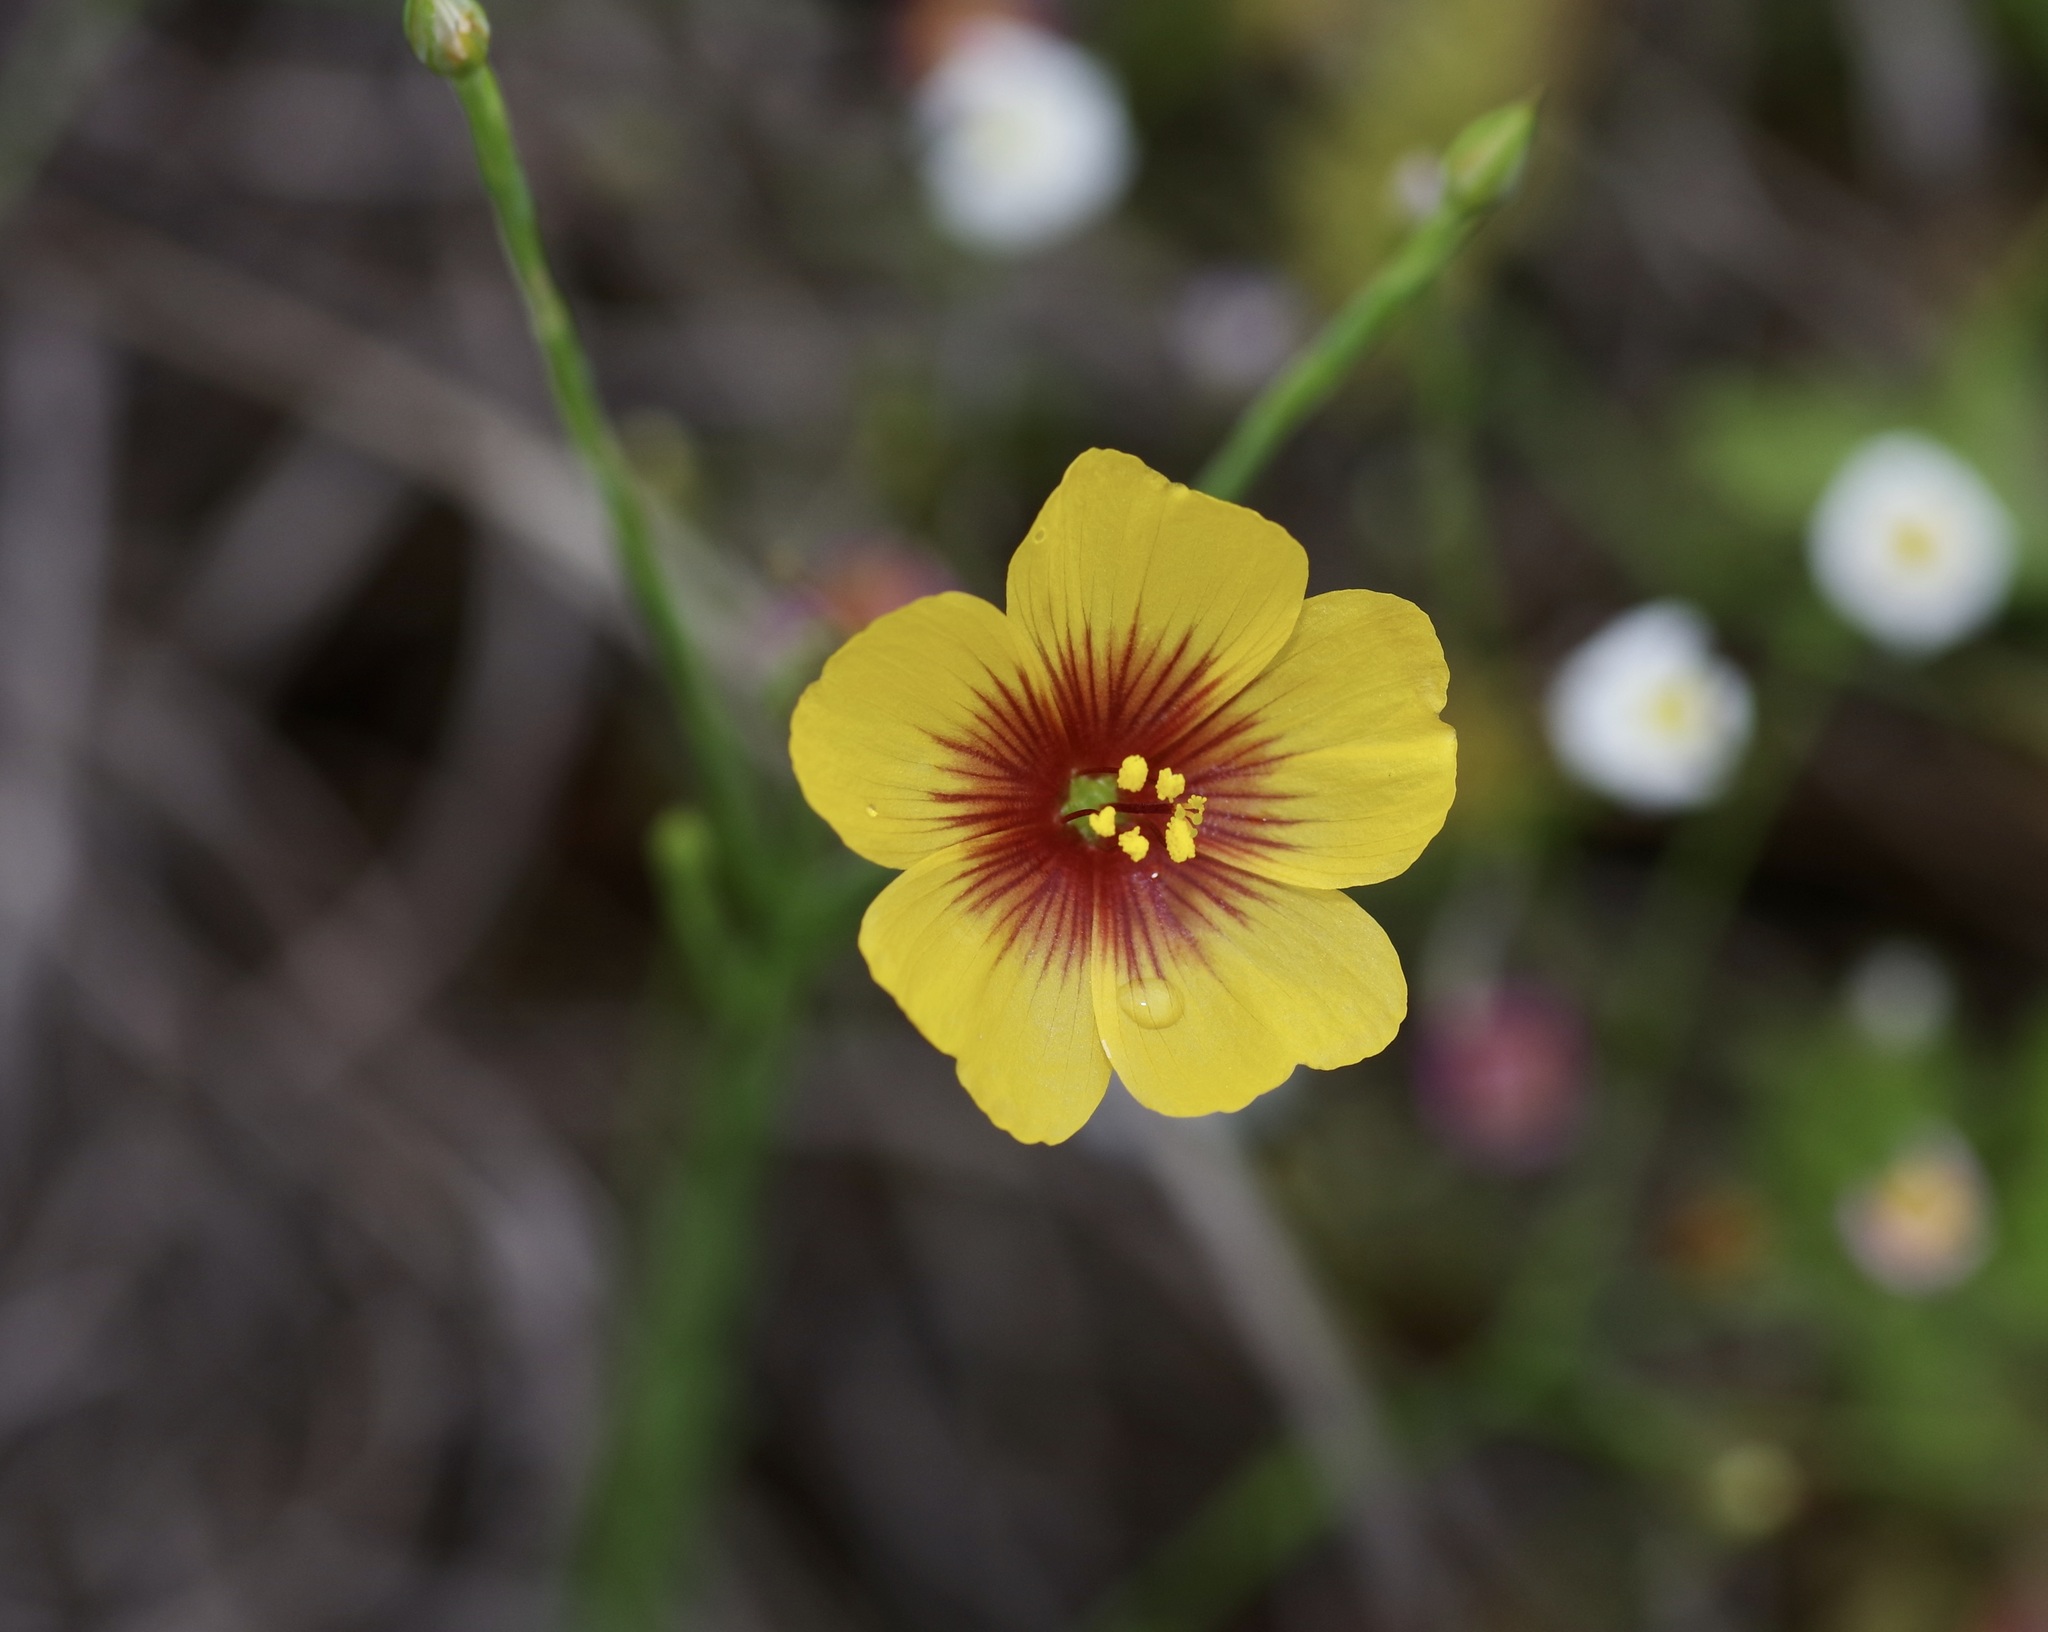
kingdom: Plantae
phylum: Tracheophyta
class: Magnoliopsida
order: Malpighiales
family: Linaceae
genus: Linum
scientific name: Linum hudsonioides
